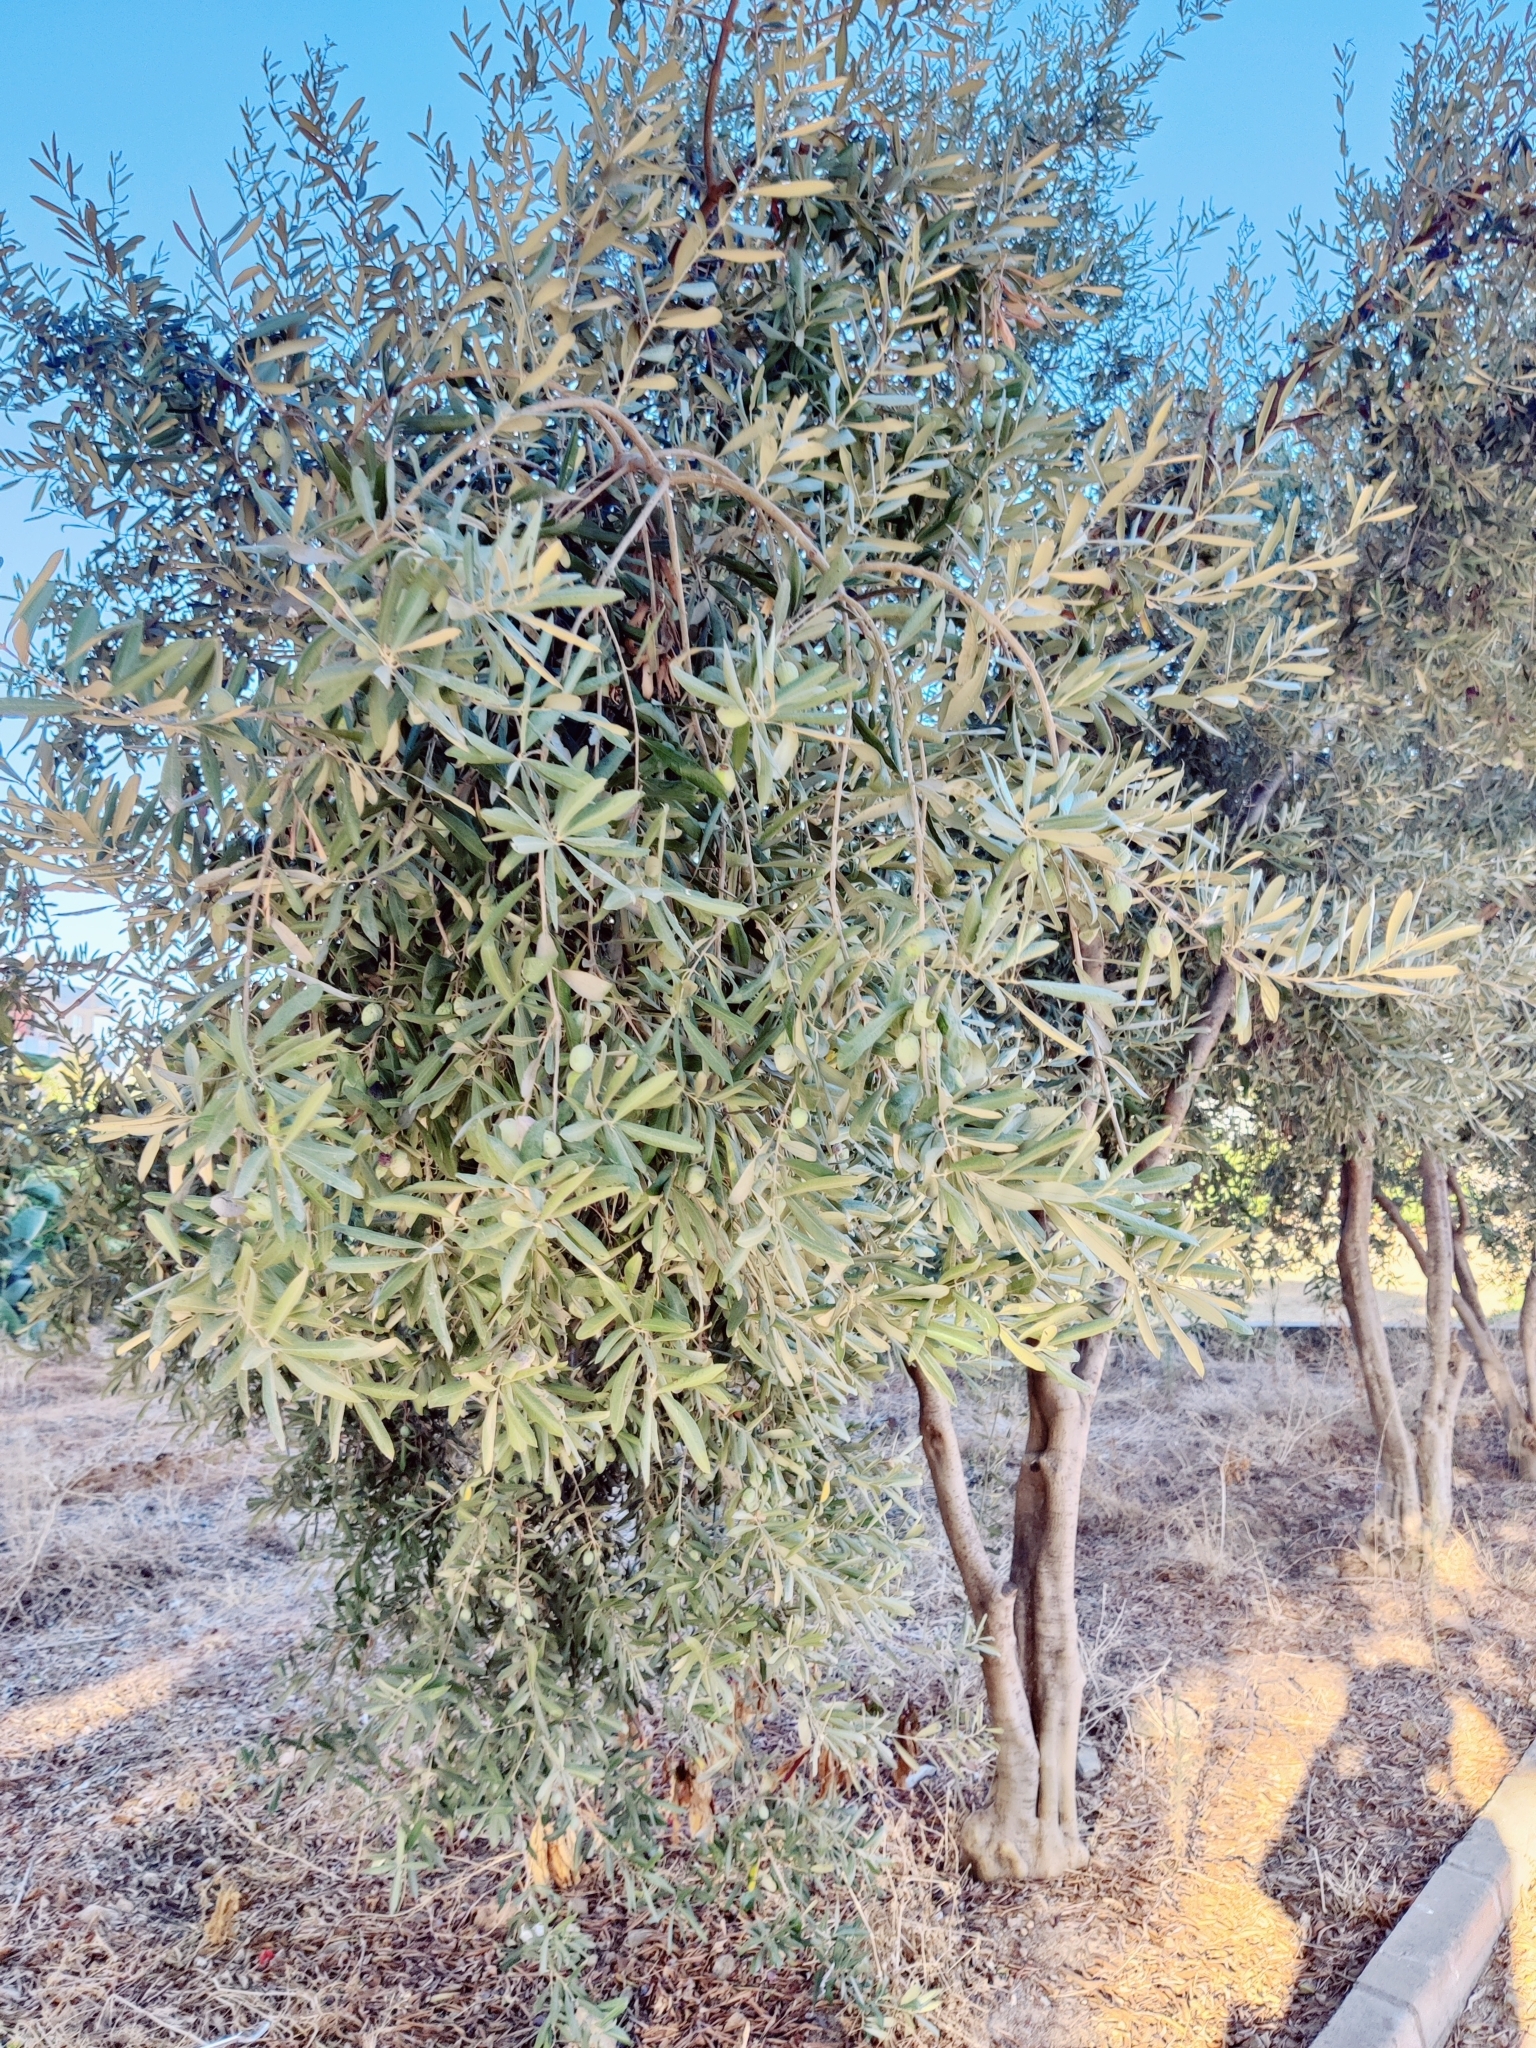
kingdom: Plantae
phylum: Tracheophyta
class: Magnoliopsida
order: Lamiales
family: Oleaceae
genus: Olea
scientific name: Olea europaea
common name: Olive
